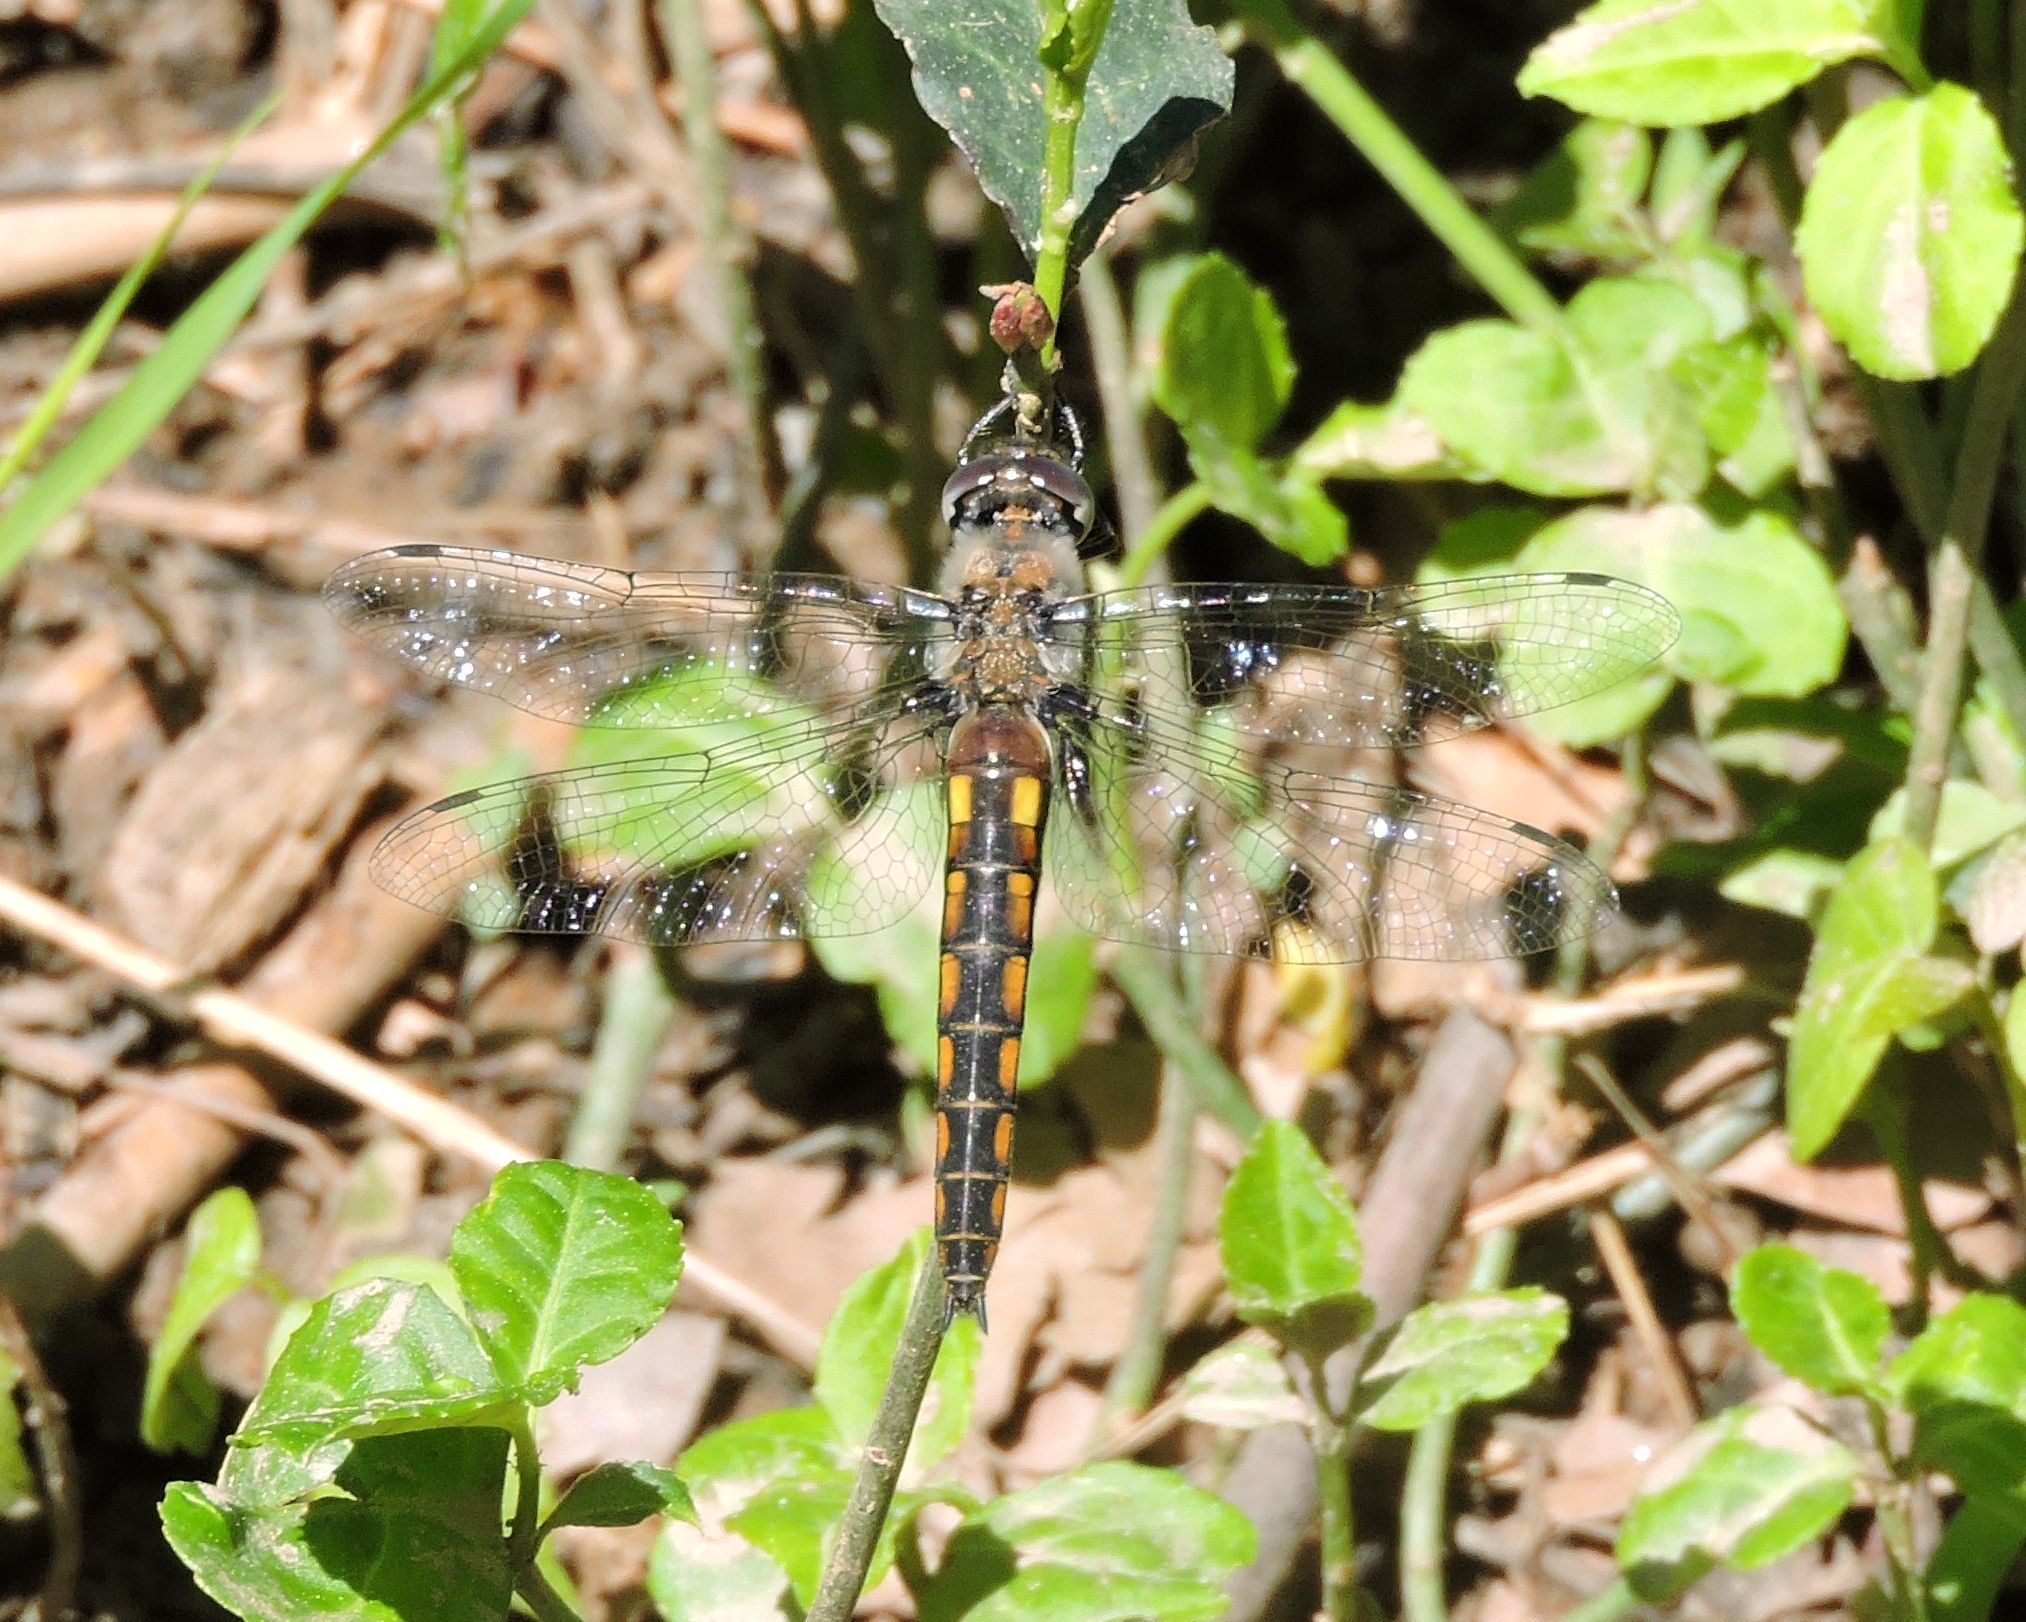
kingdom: Animalia
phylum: Arthropoda
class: Insecta
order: Odonata
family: Corduliidae
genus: Epitheca
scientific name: Epitheca cynosura
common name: Common baskettail
